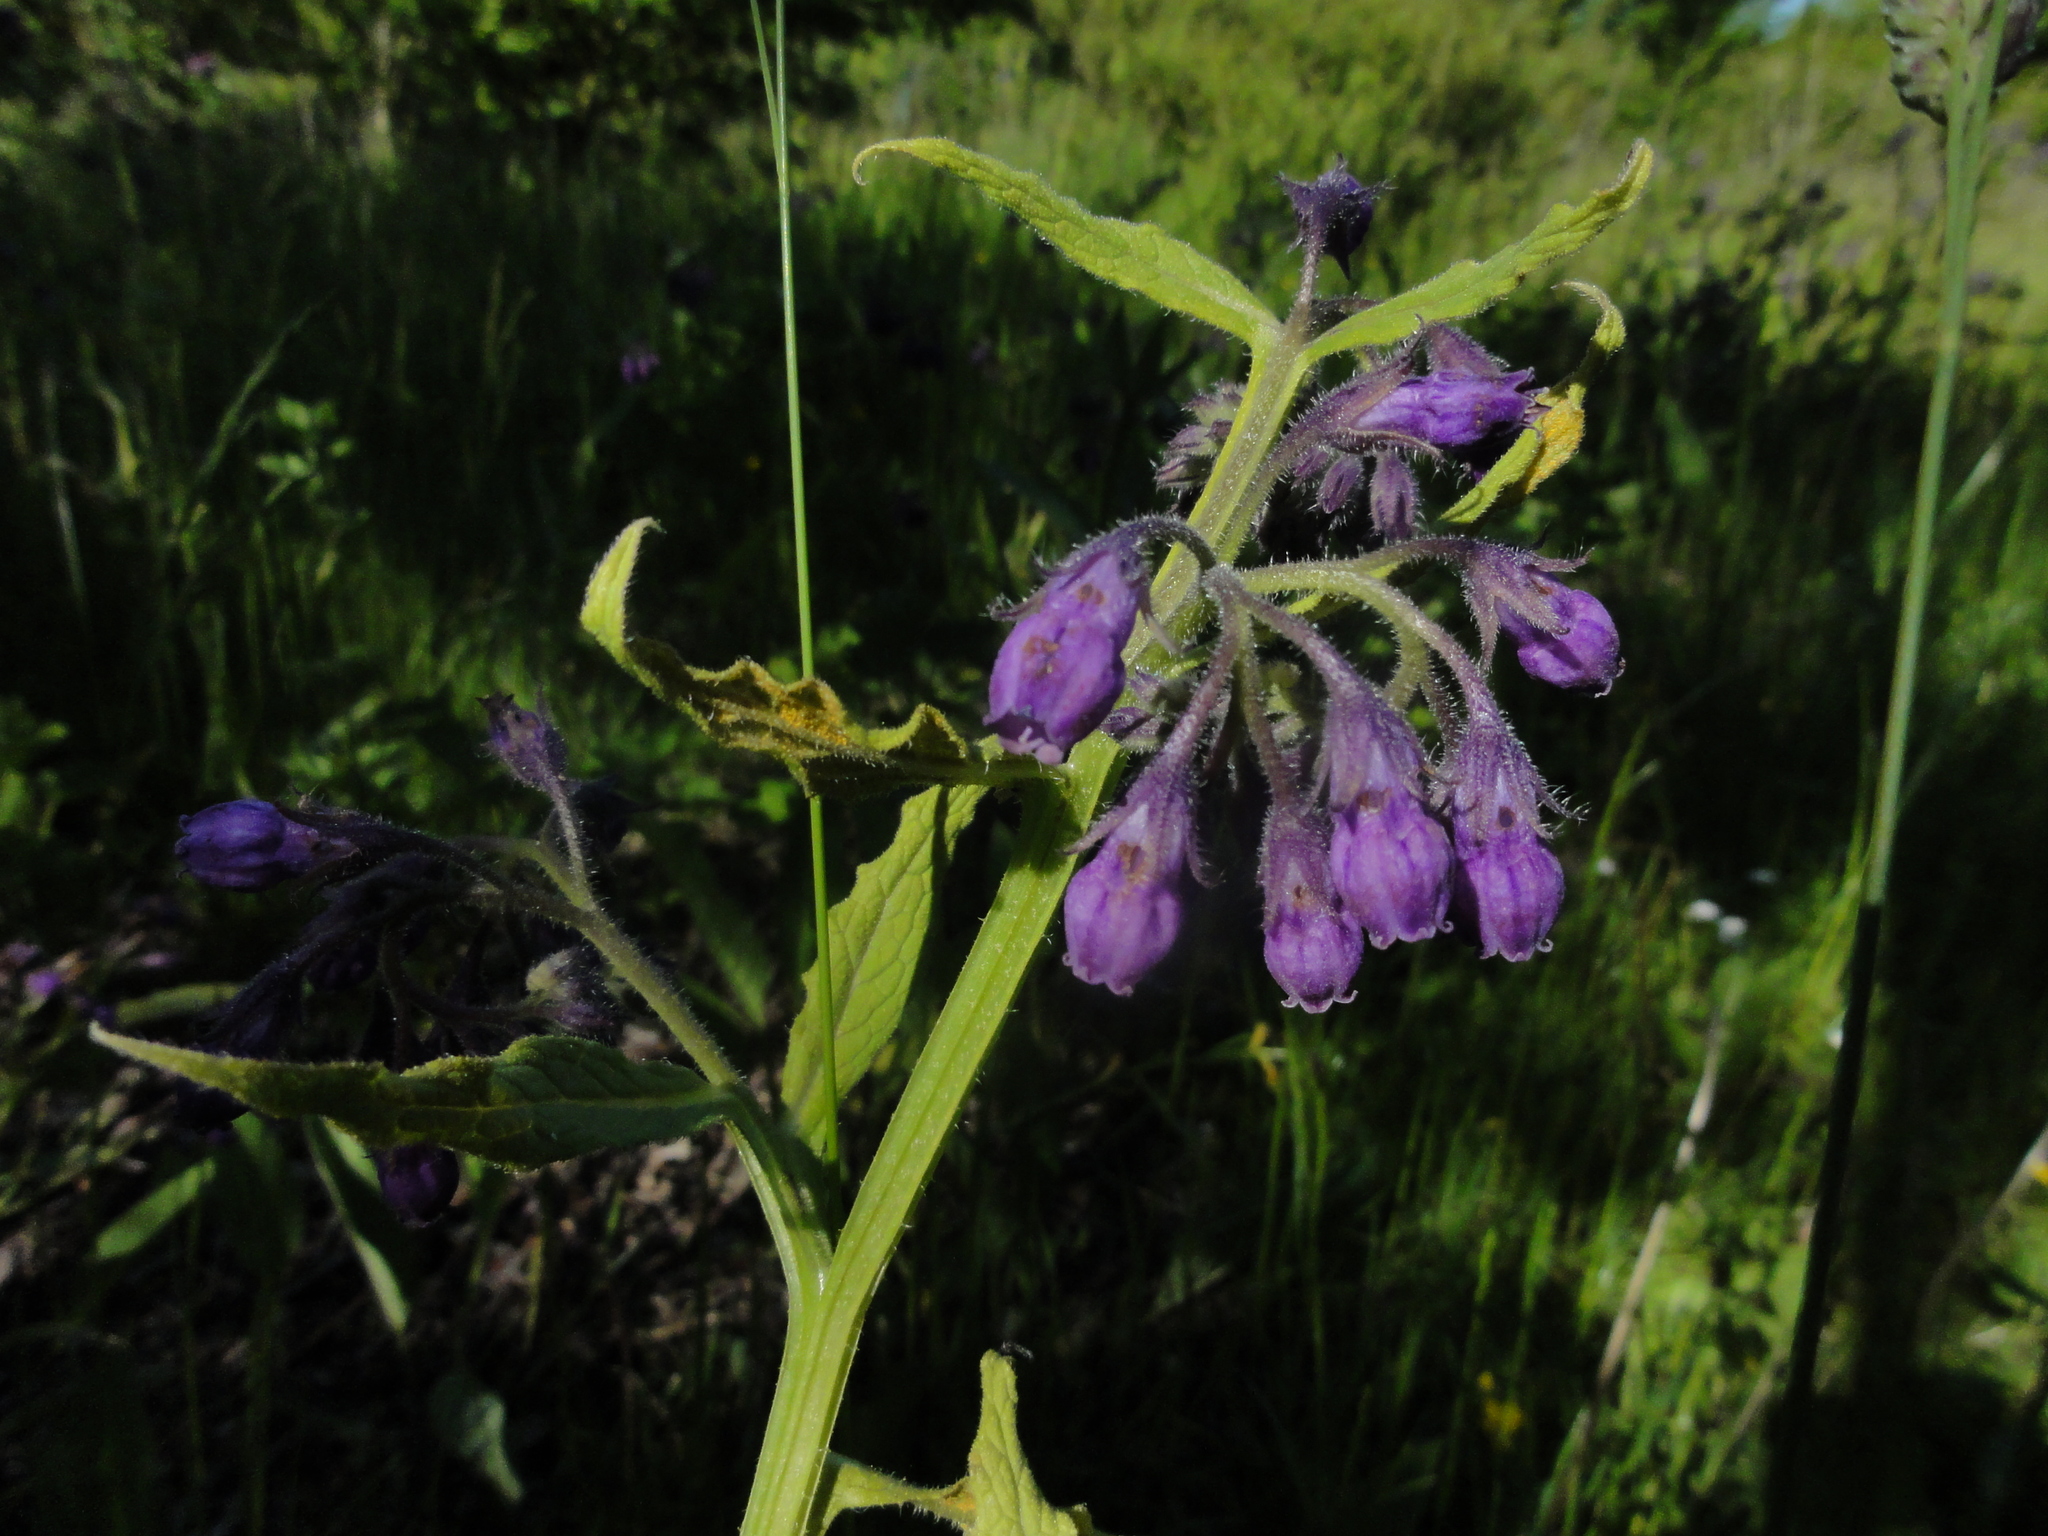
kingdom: Plantae
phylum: Tracheophyta
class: Magnoliopsida
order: Boraginales
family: Boraginaceae
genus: Symphytum
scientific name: Symphytum officinale
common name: Common comfrey
